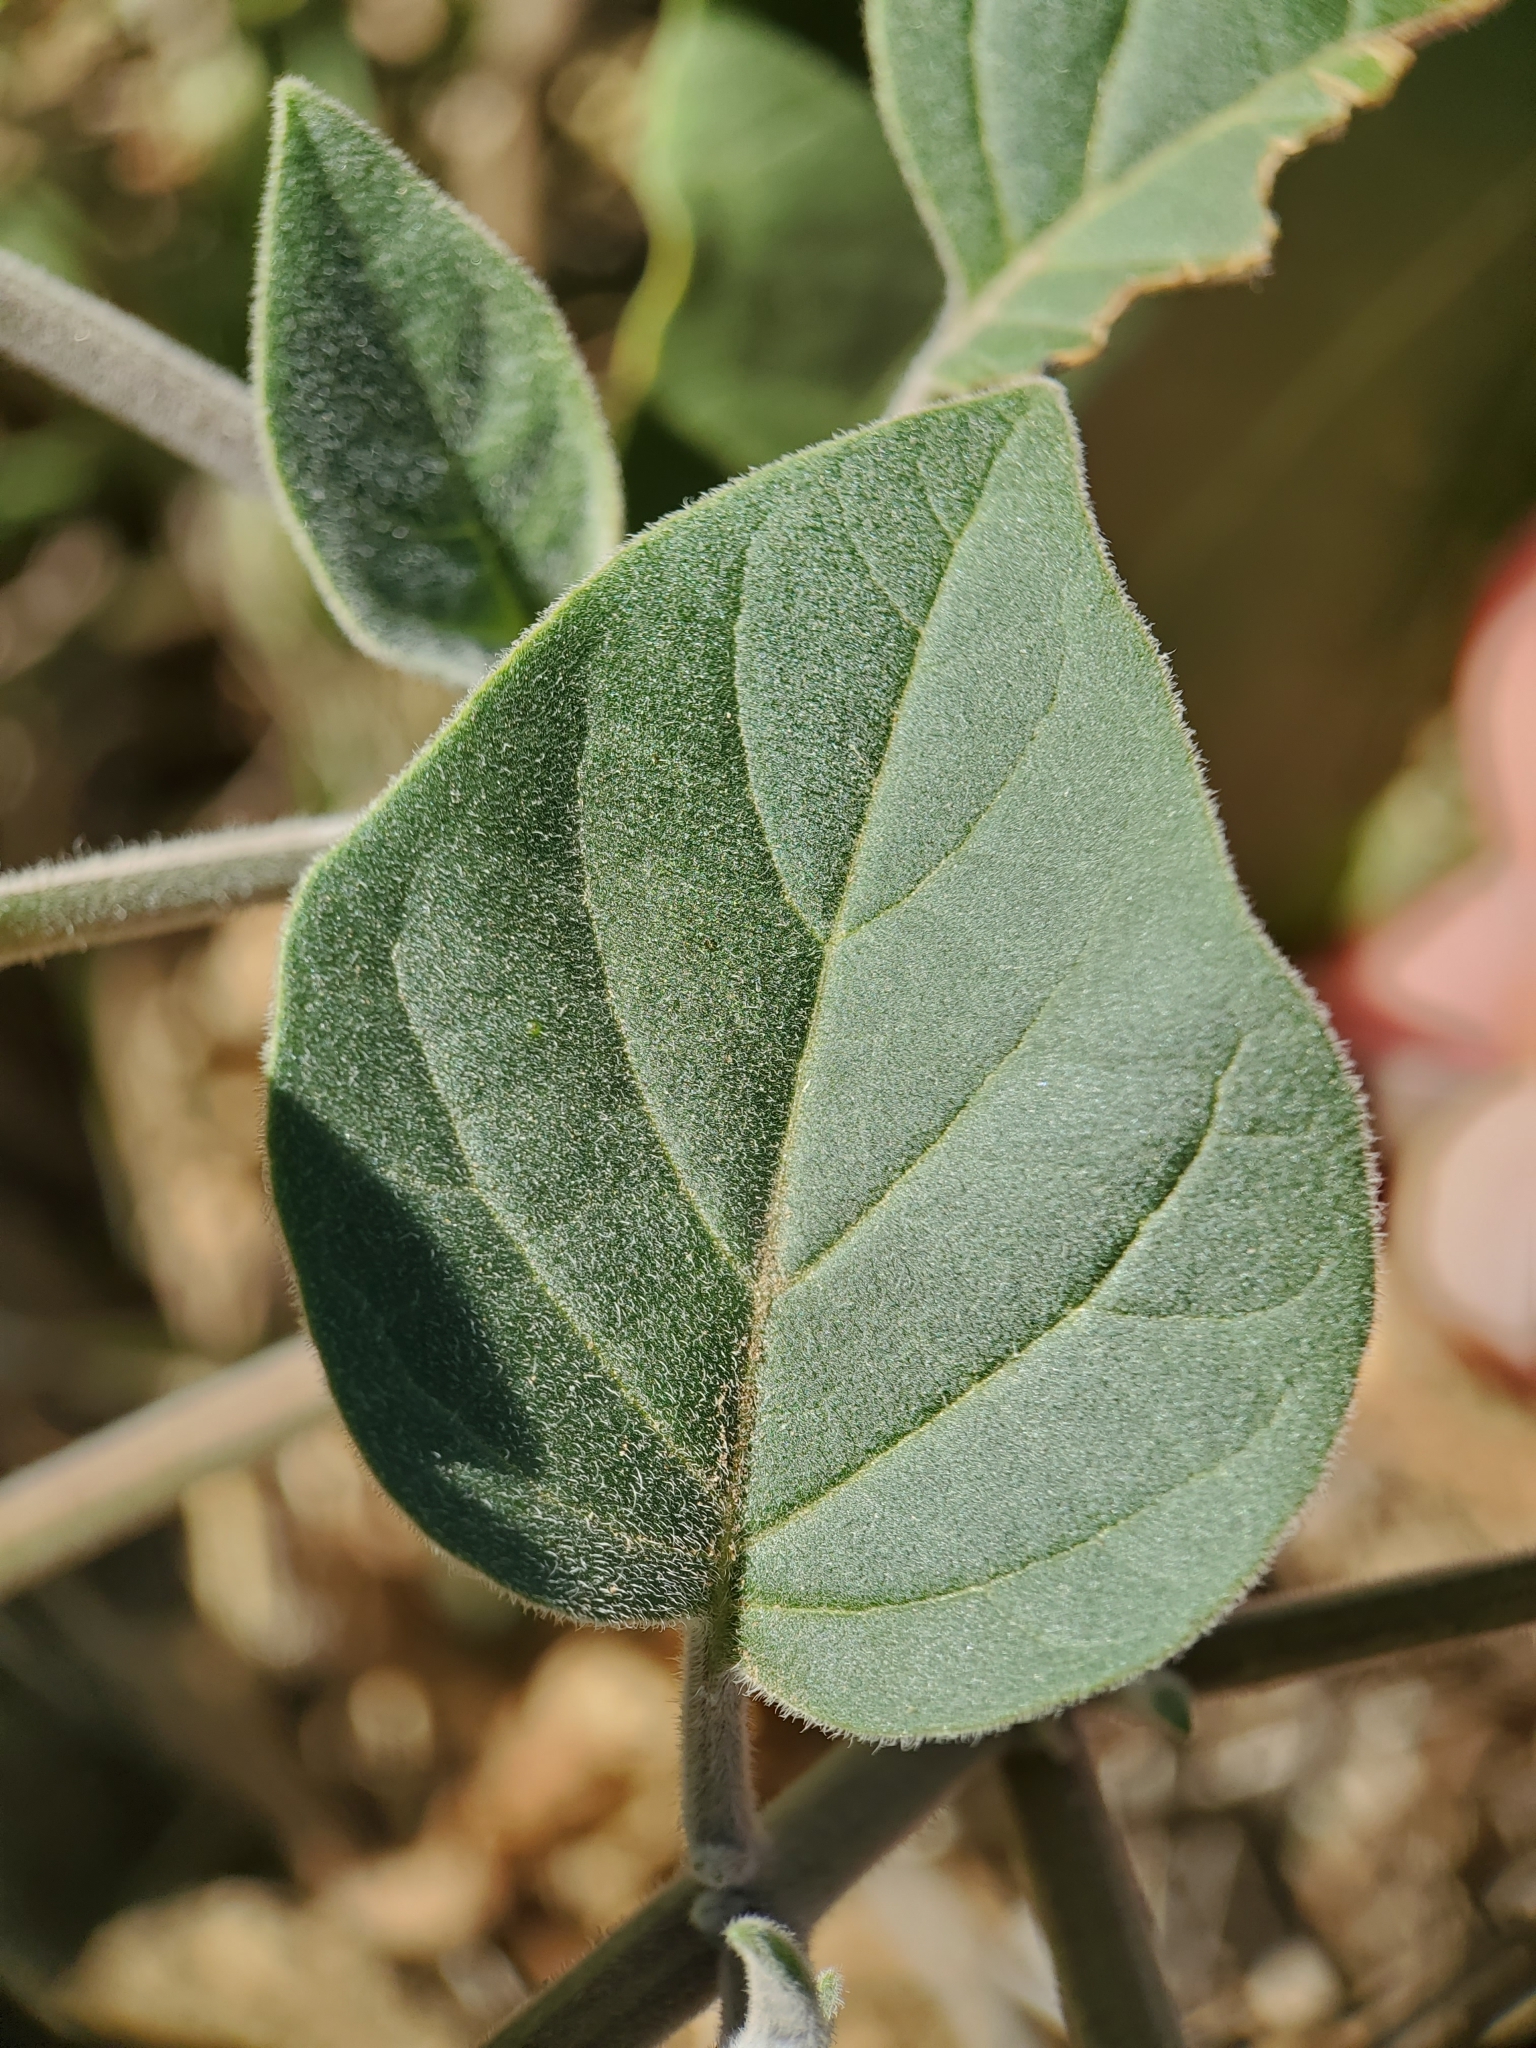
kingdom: Plantae
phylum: Tracheophyta
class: Magnoliopsida
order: Solanales
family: Solanaceae
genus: Datura
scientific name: Datura wrightii
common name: Sacred thorn-apple
